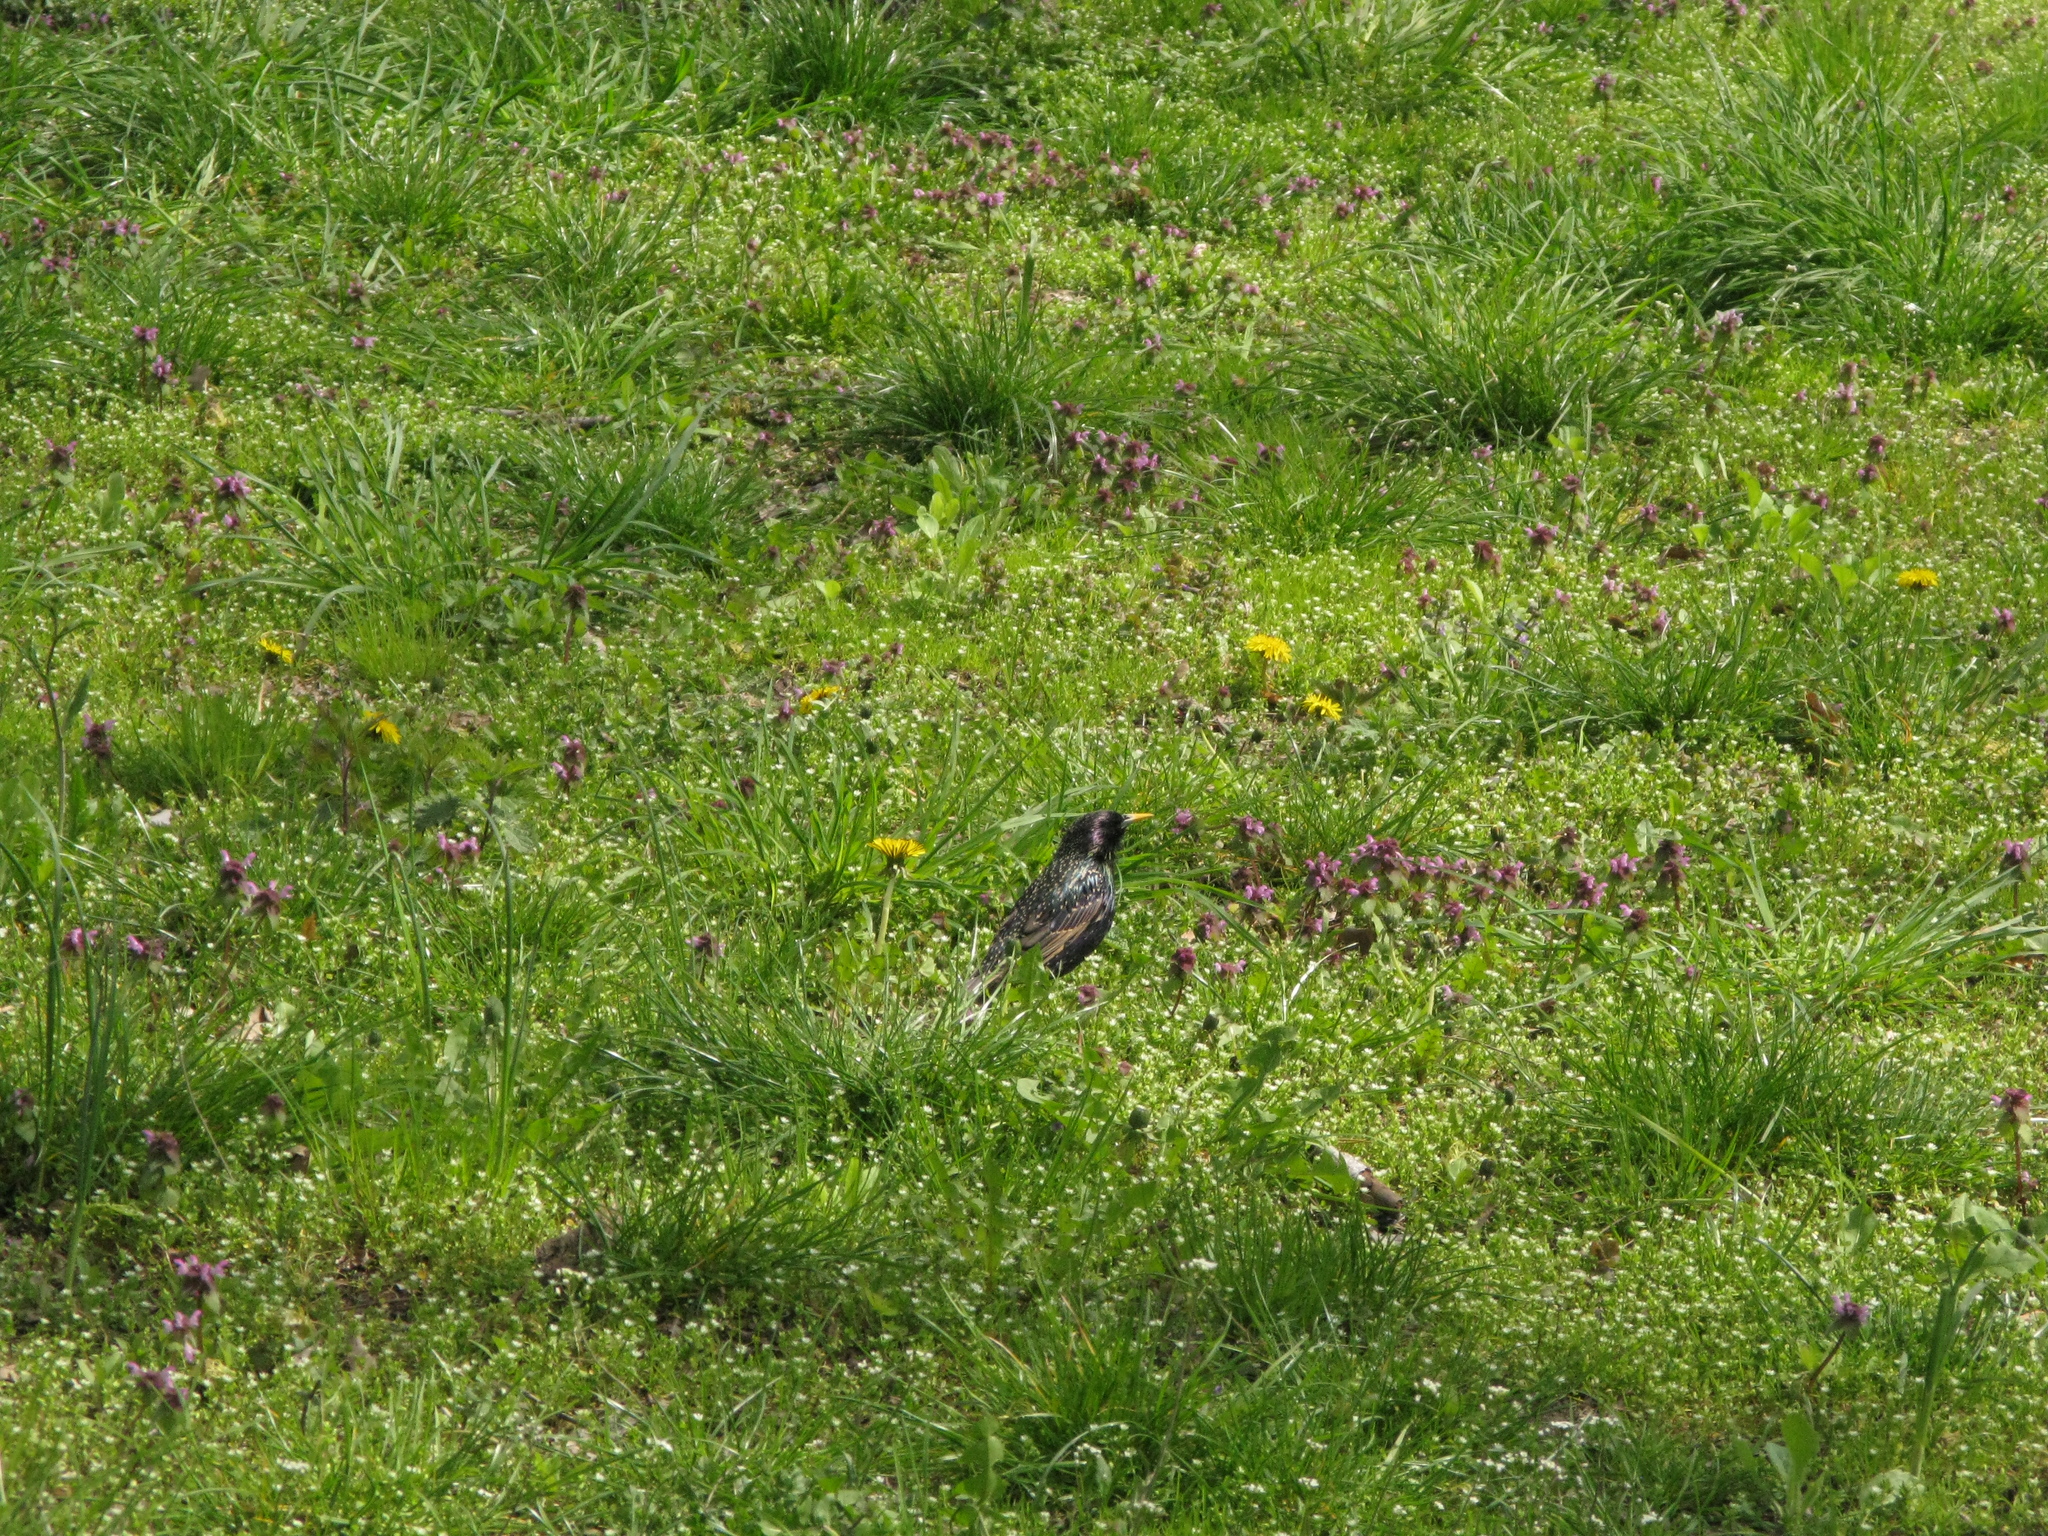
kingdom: Animalia
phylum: Chordata
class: Aves
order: Passeriformes
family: Sturnidae
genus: Sturnus
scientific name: Sturnus vulgaris
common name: Common starling
